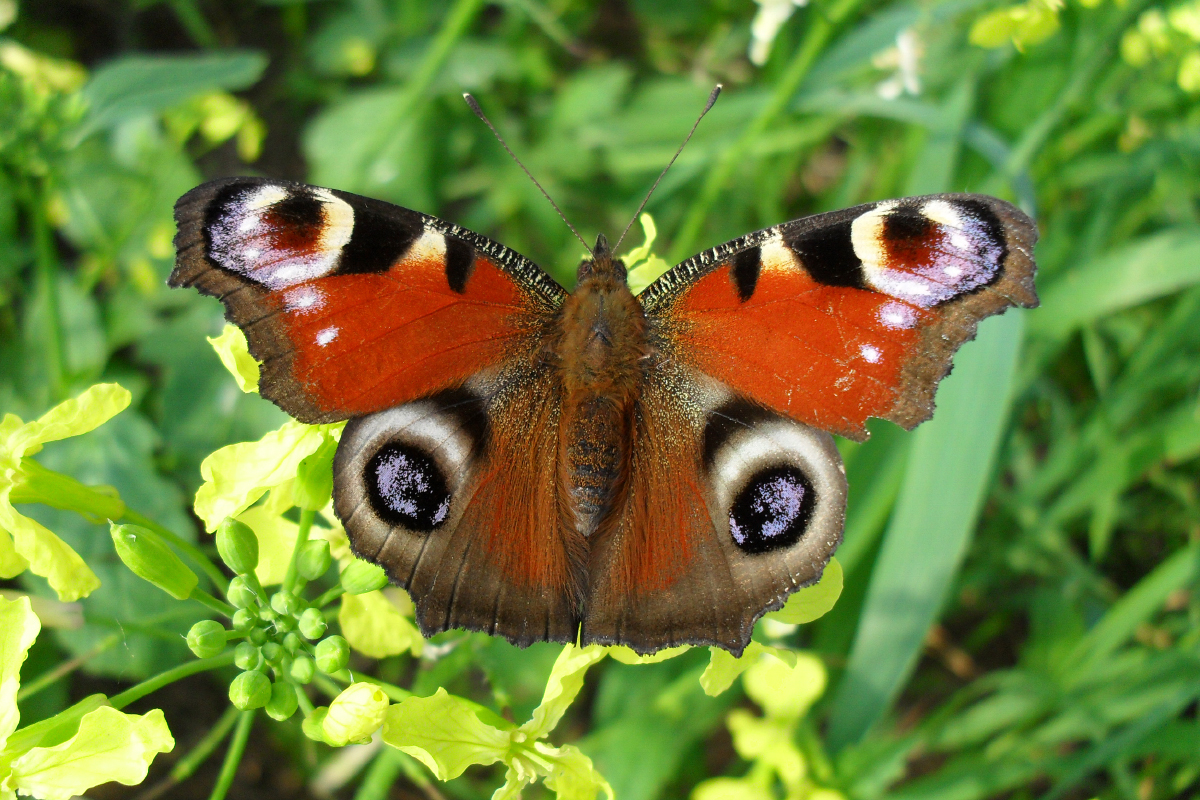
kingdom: Animalia
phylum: Arthropoda
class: Insecta
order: Lepidoptera
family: Nymphalidae
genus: Aglais
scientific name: Aglais io
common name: Peacock
